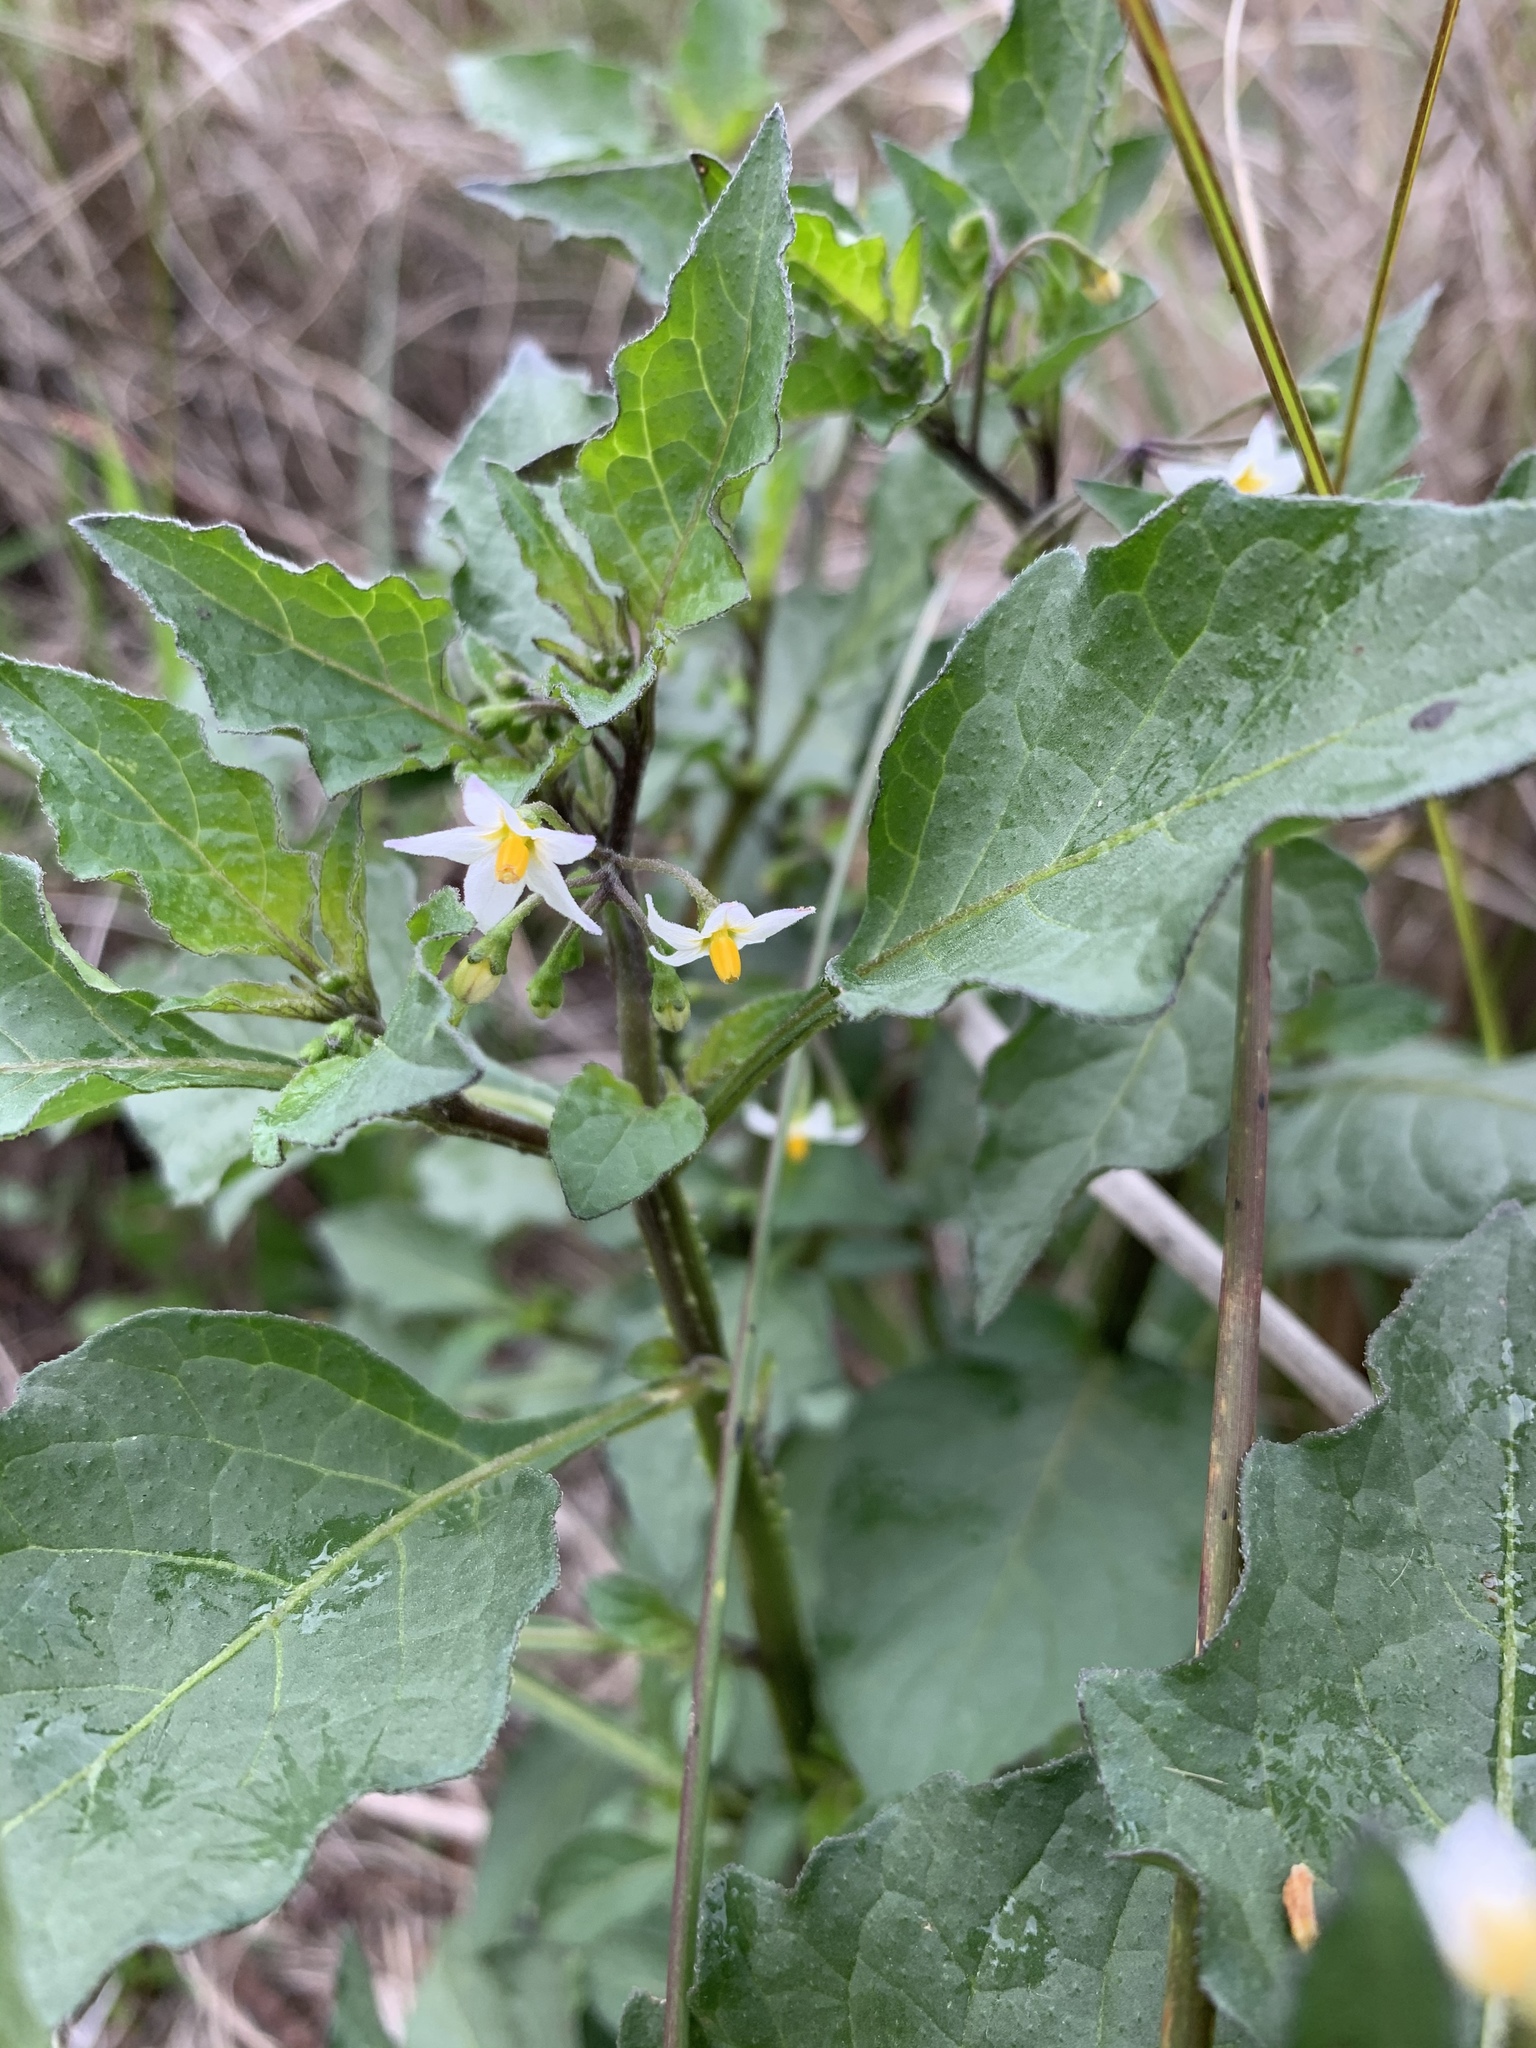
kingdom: Plantae
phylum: Tracheophyta
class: Magnoliopsida
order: Solanales
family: Solanaceae
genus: Solanum
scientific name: Solanum nigrum
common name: Black nightshade
